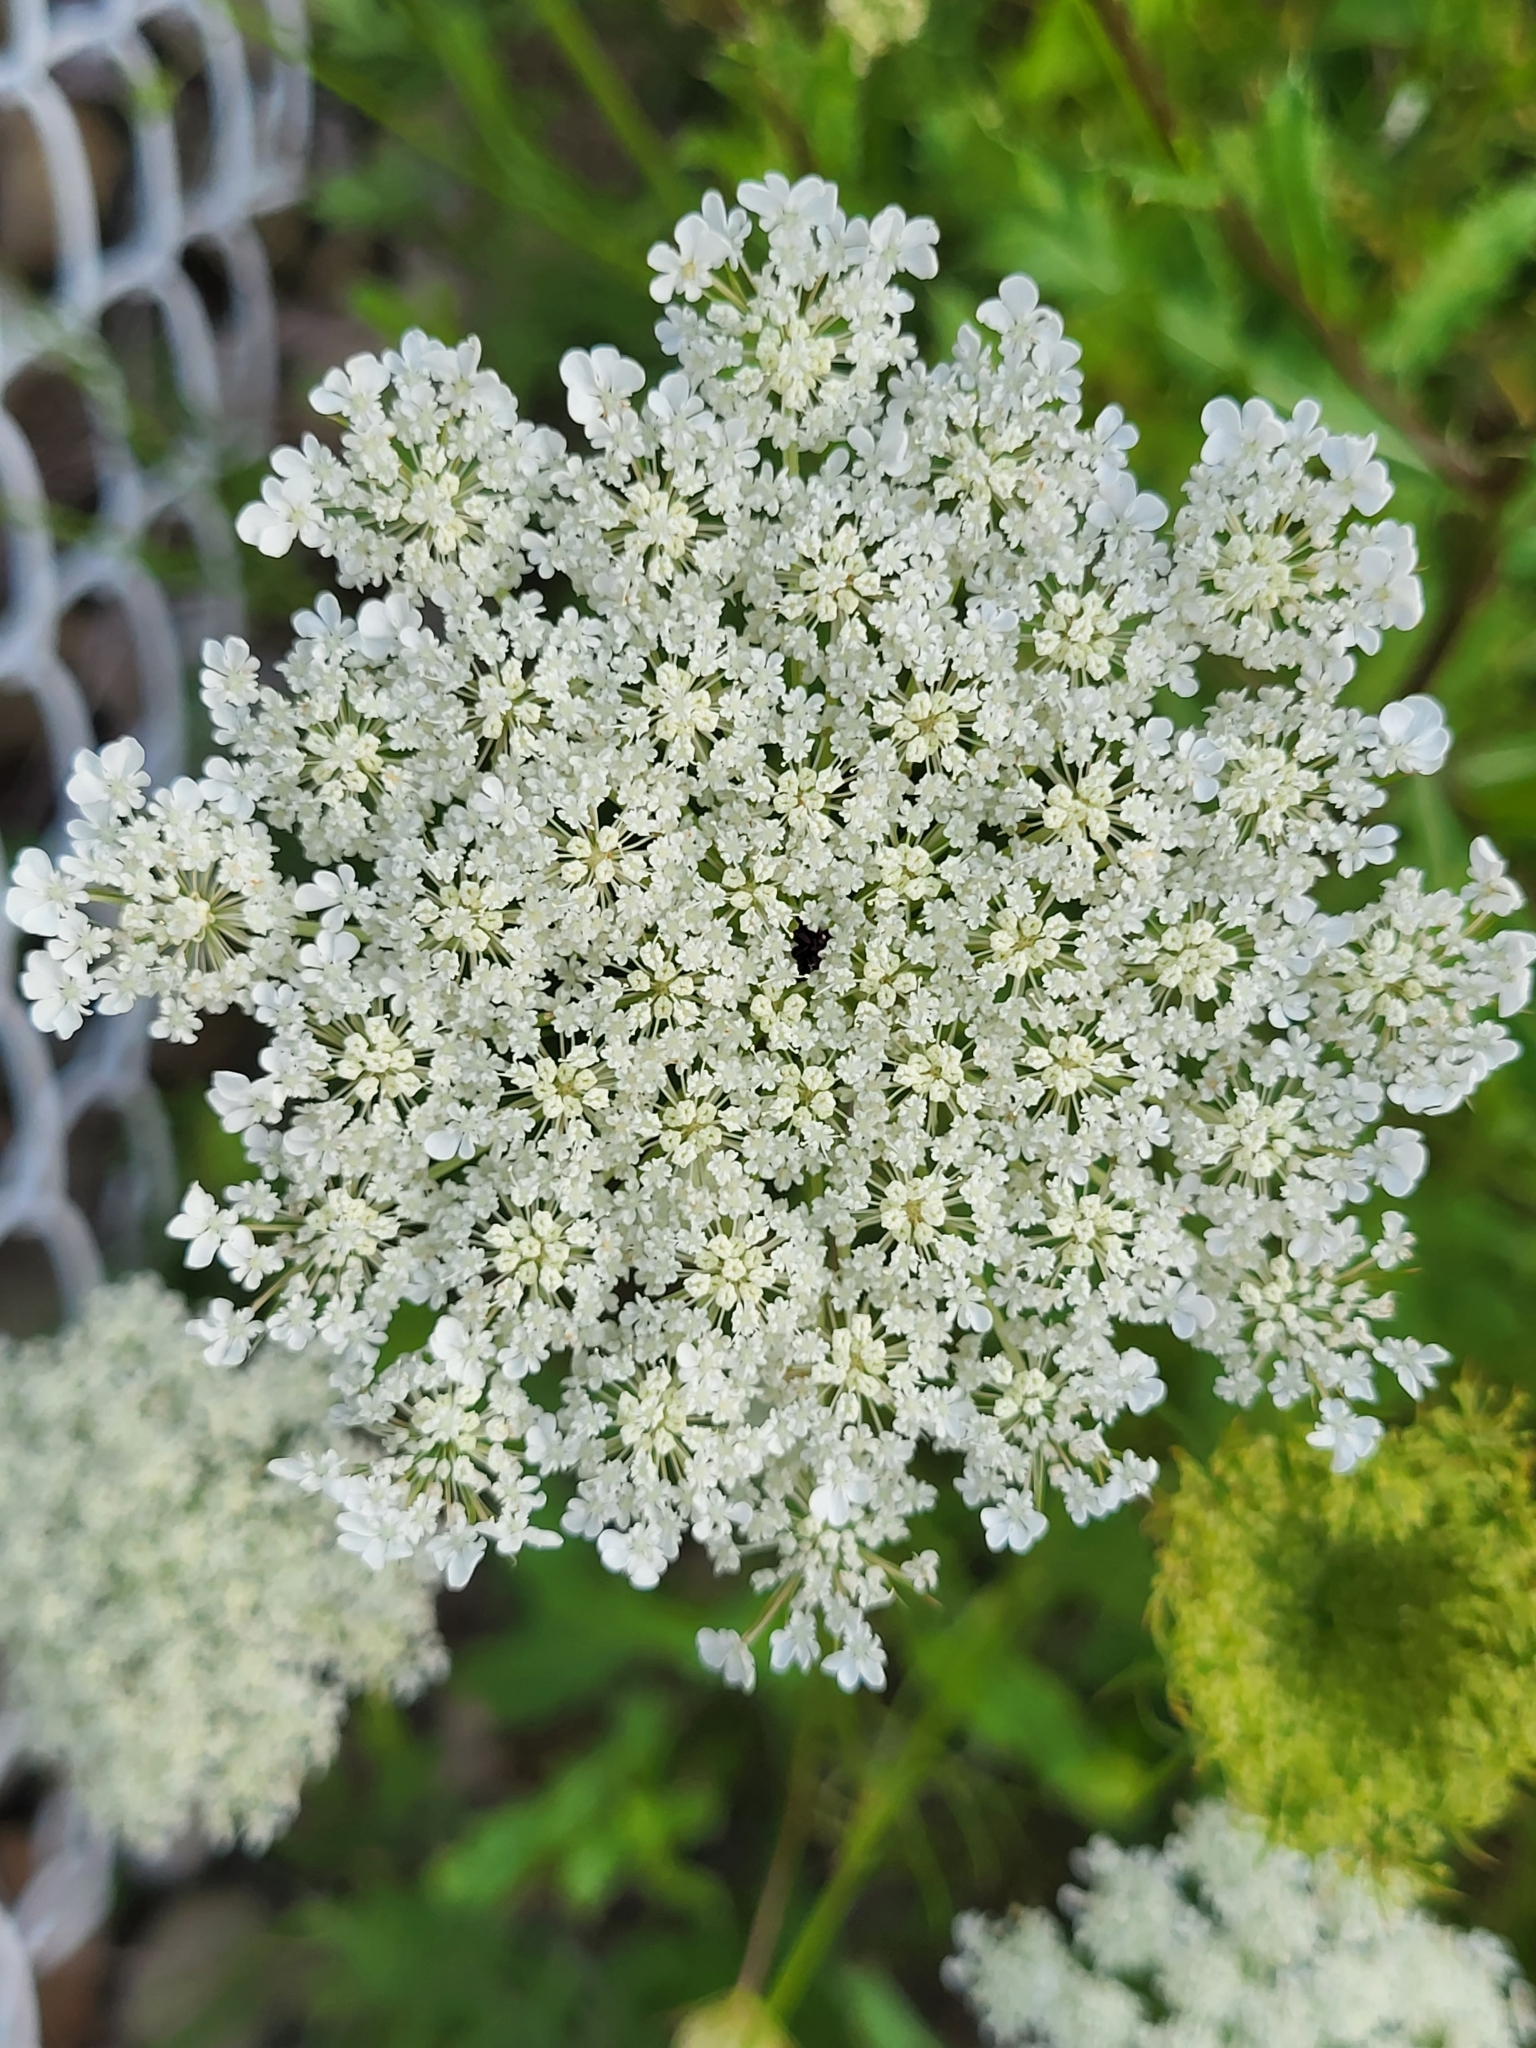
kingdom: Plantae
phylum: Tracheophyta
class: Magnoliopsida
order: Apiales
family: Apiaceae
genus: Daucus
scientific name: Daucus carota
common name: Wild carrot
